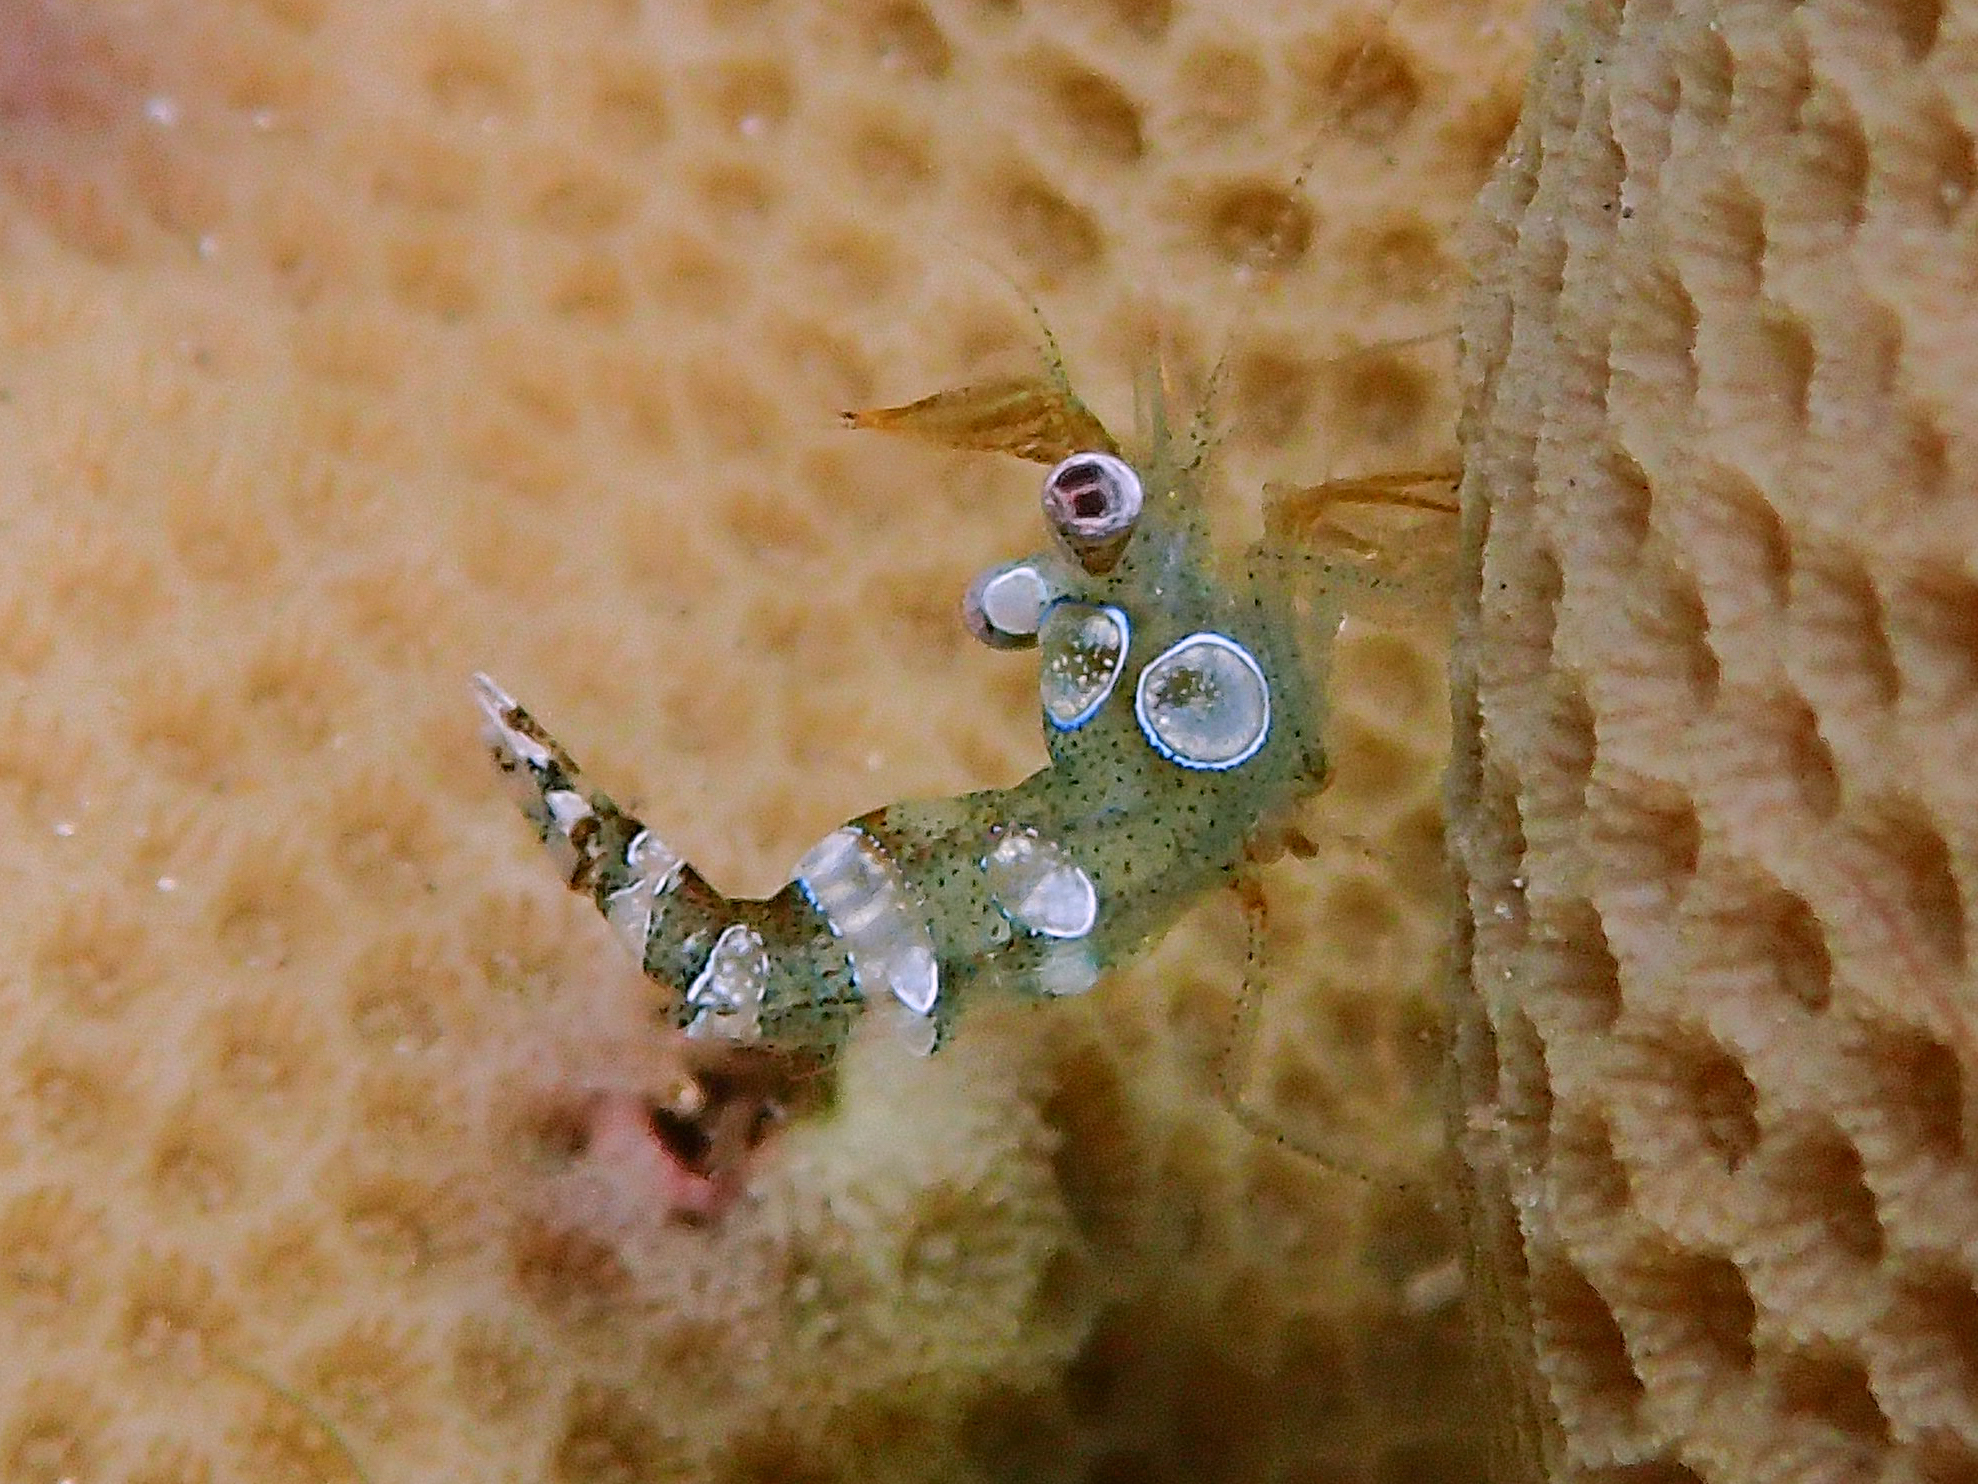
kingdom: Animalia
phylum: Arthropoda
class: Malacostraca
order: Decapoda
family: Thoridae
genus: Thor
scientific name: Thor amboinensis
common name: Squat anemone shrimp
